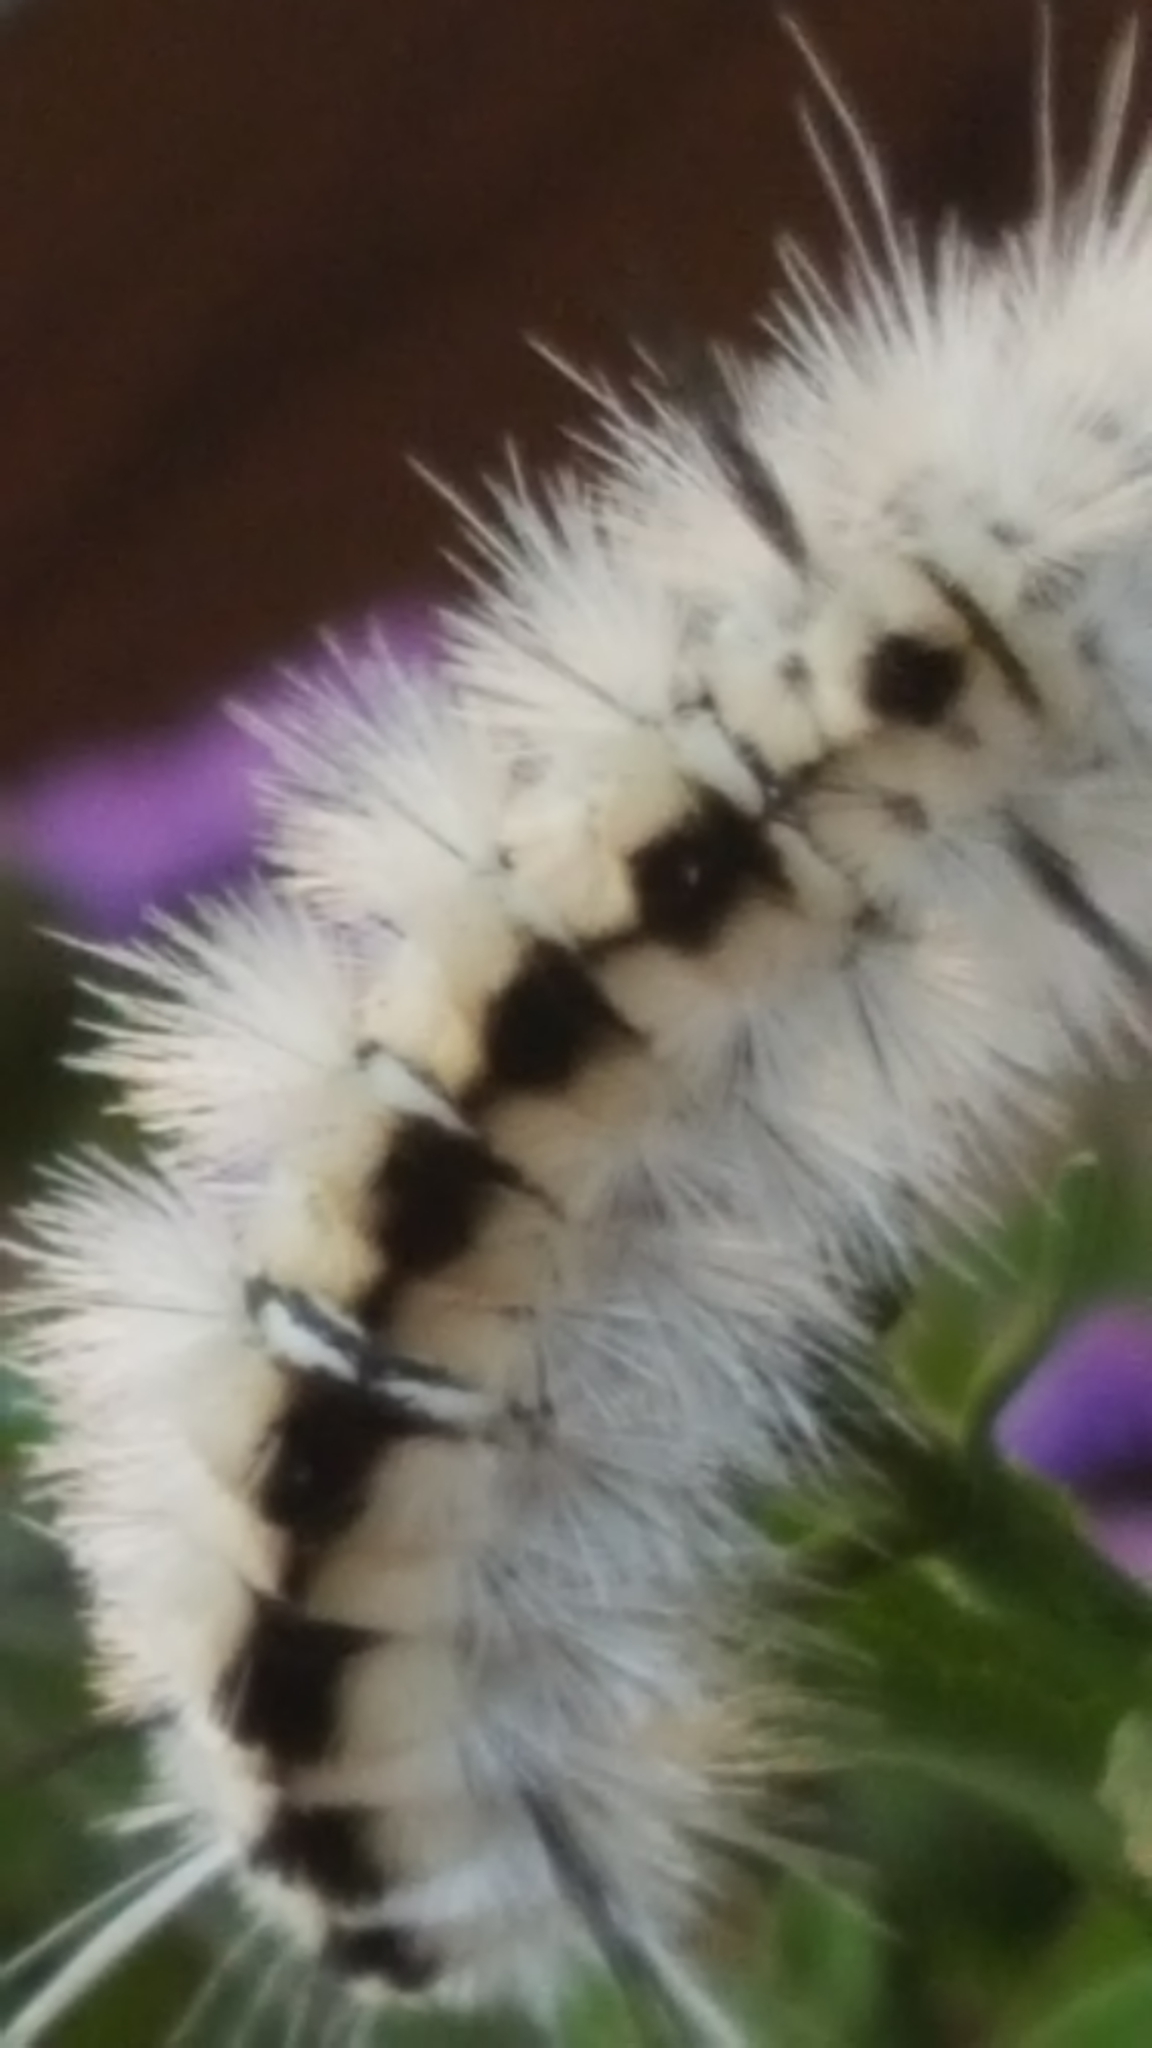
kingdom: Animalia
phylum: Arthropoda
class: Insecta
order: Lepidoptera
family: Erebidae
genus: Lophocampa
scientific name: Lophocampa caryae
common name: Hickory tussock moth
